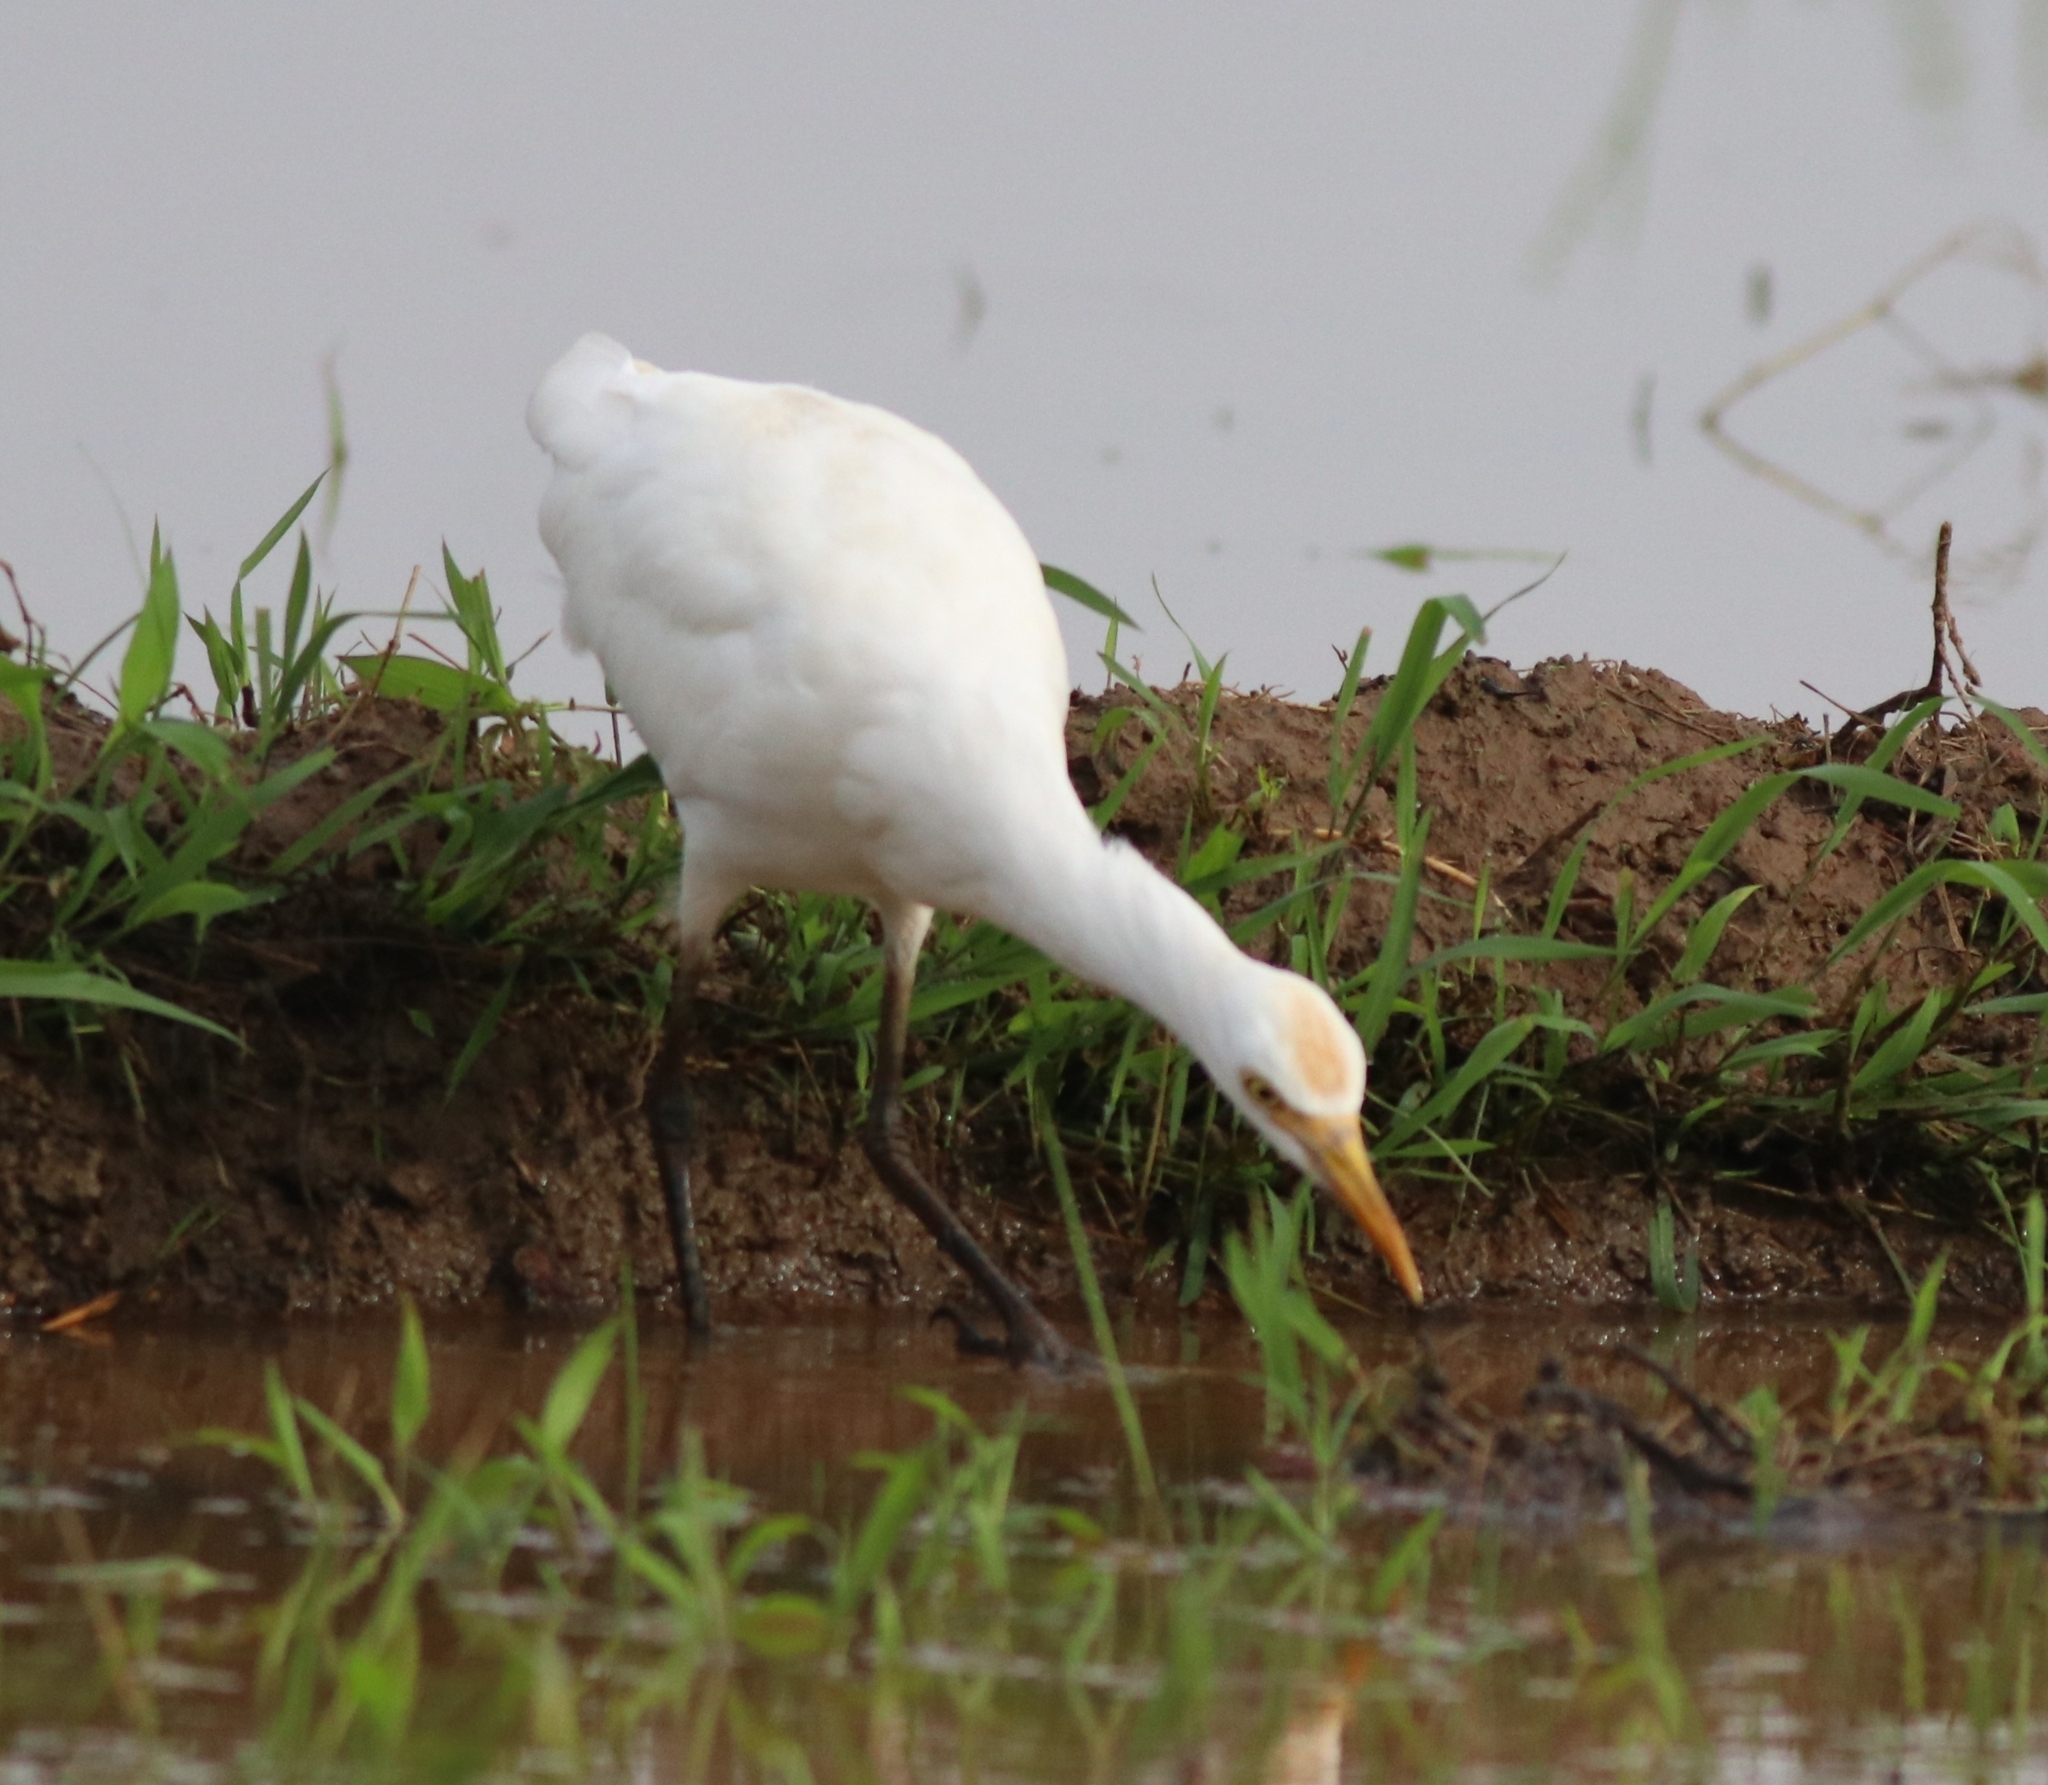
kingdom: Animalia
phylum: Chordata
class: Aves
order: Pelecaniformes
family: Ardeidae
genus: Bubulcus
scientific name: Bubulcus coromandus
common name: Eastern cattle egret
